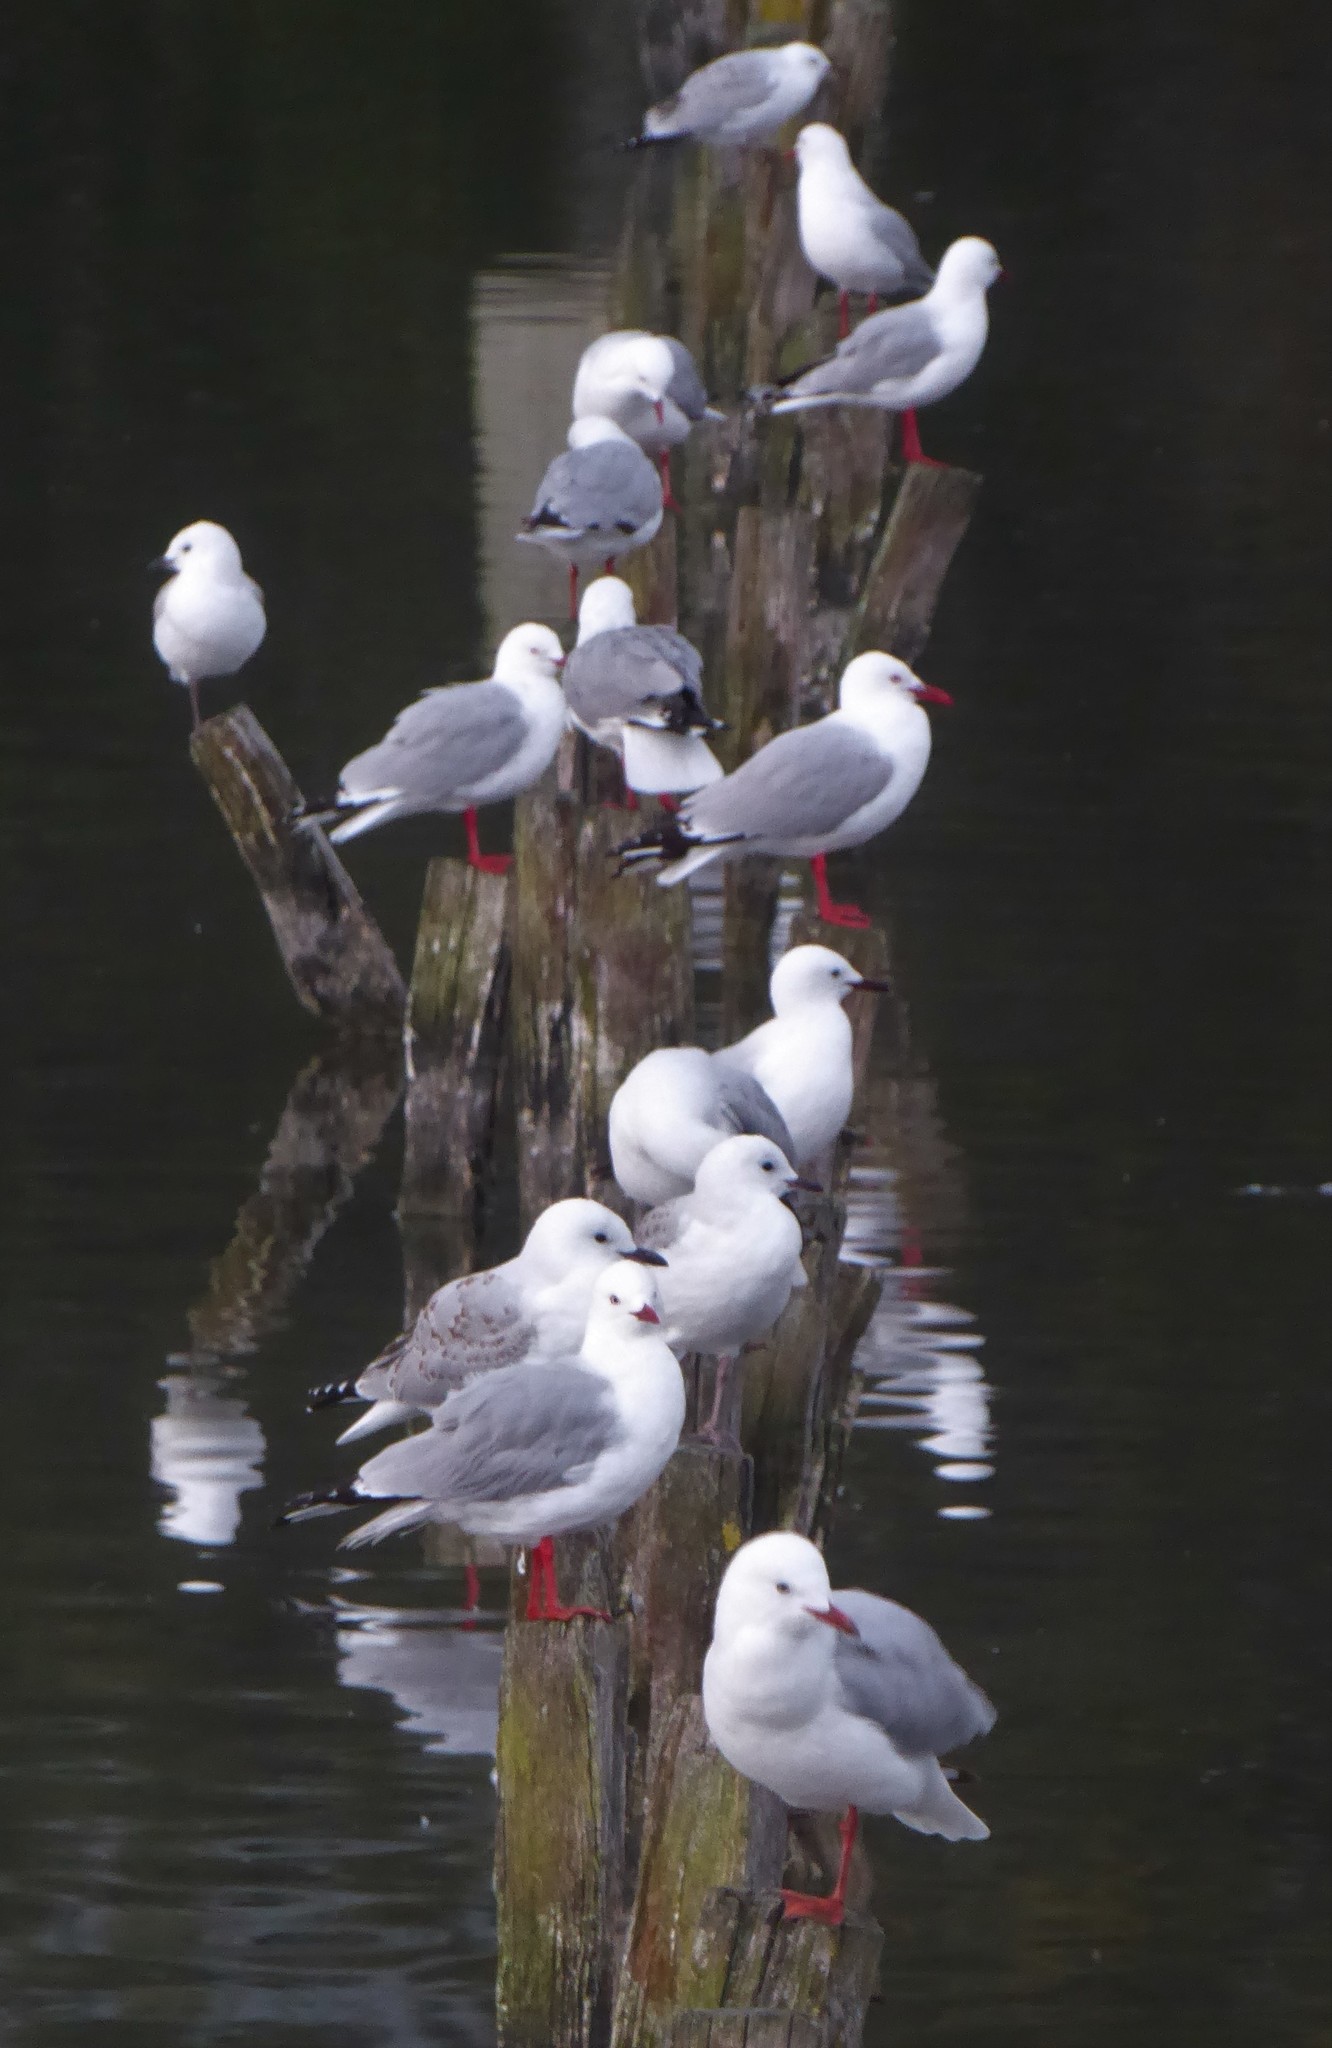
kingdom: Animalia
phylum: Chordata
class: Aves
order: Charadriiformes
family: Laridae
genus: Chroicocephalus
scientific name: Chroicocephalus novaehollandiae
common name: Silver gull
